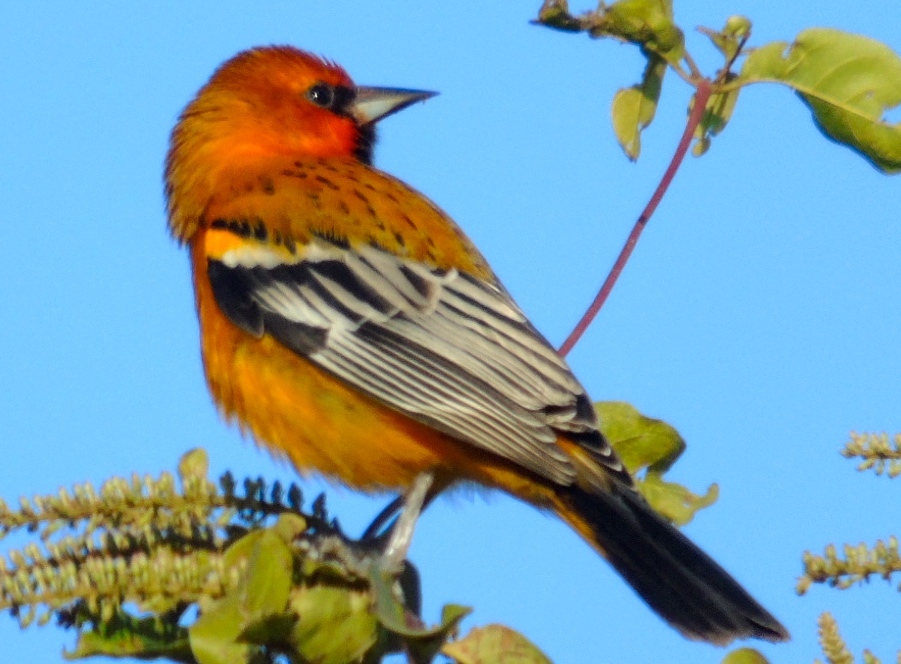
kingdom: Animalia
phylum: Chordata
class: Aves
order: Passeriformes
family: Icteridae
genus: Icterus
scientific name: Icterus pustulatus
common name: Streak-backed oriole
